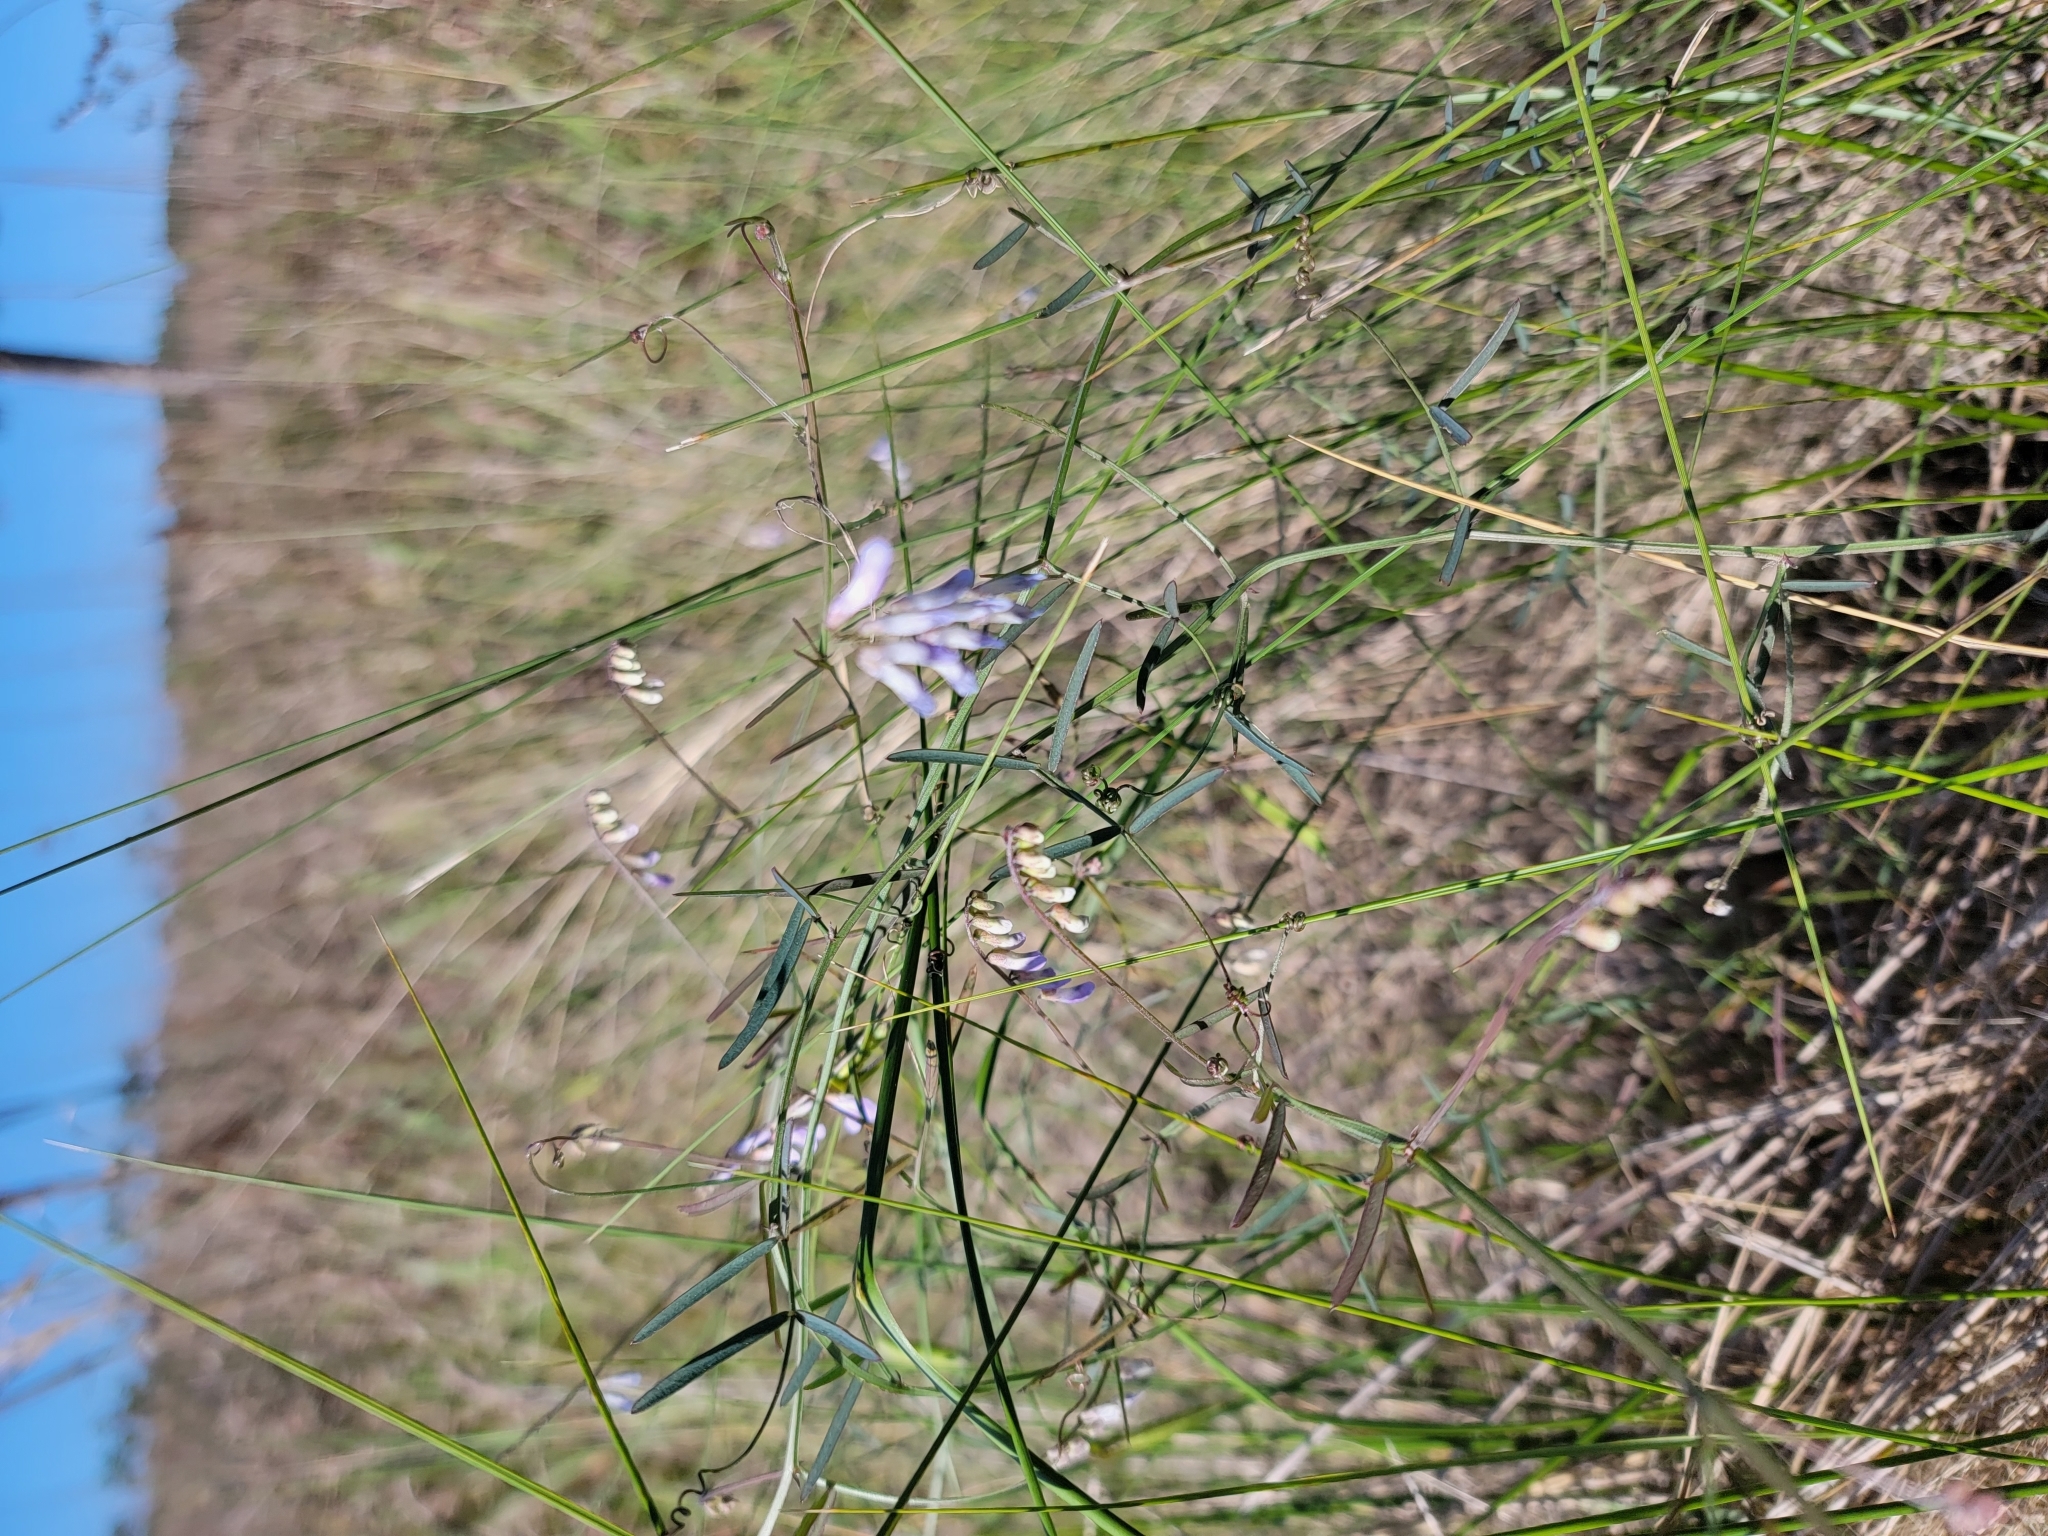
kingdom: Plantae
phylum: Tracheophyta
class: Magnoliopsida
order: Fabales
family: Fabaceae
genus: Vicia
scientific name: Vicia acutifolia
